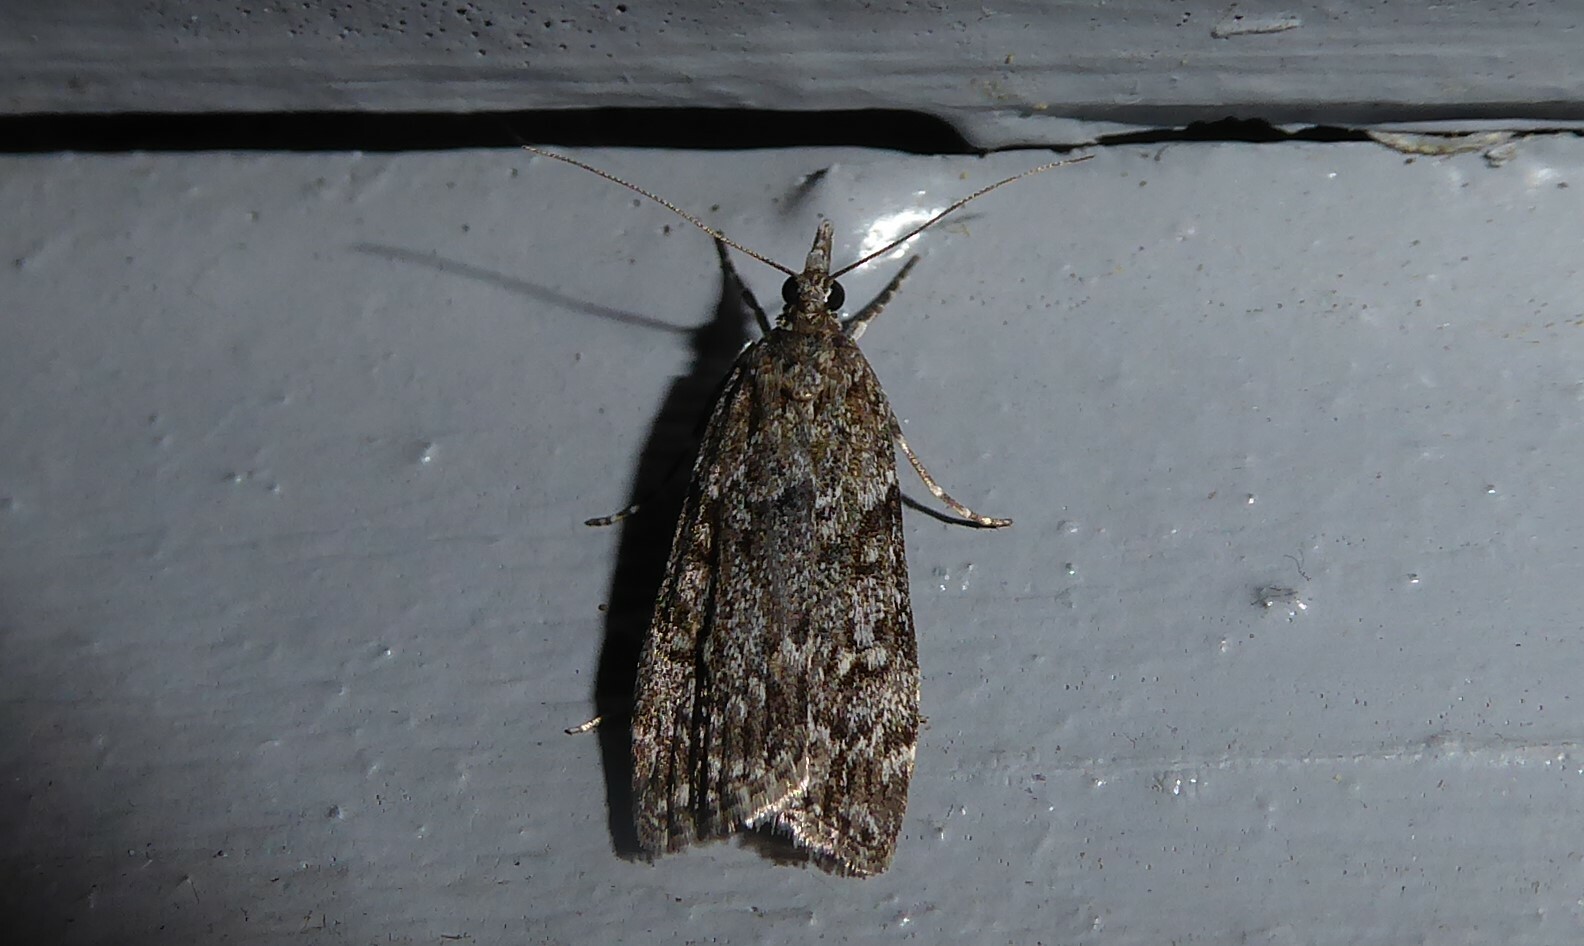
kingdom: Animalia
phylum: Arthropoda
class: Insecta
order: Lepidoptera
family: Crambidae
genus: Eudonia
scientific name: Eudonia cymatias
